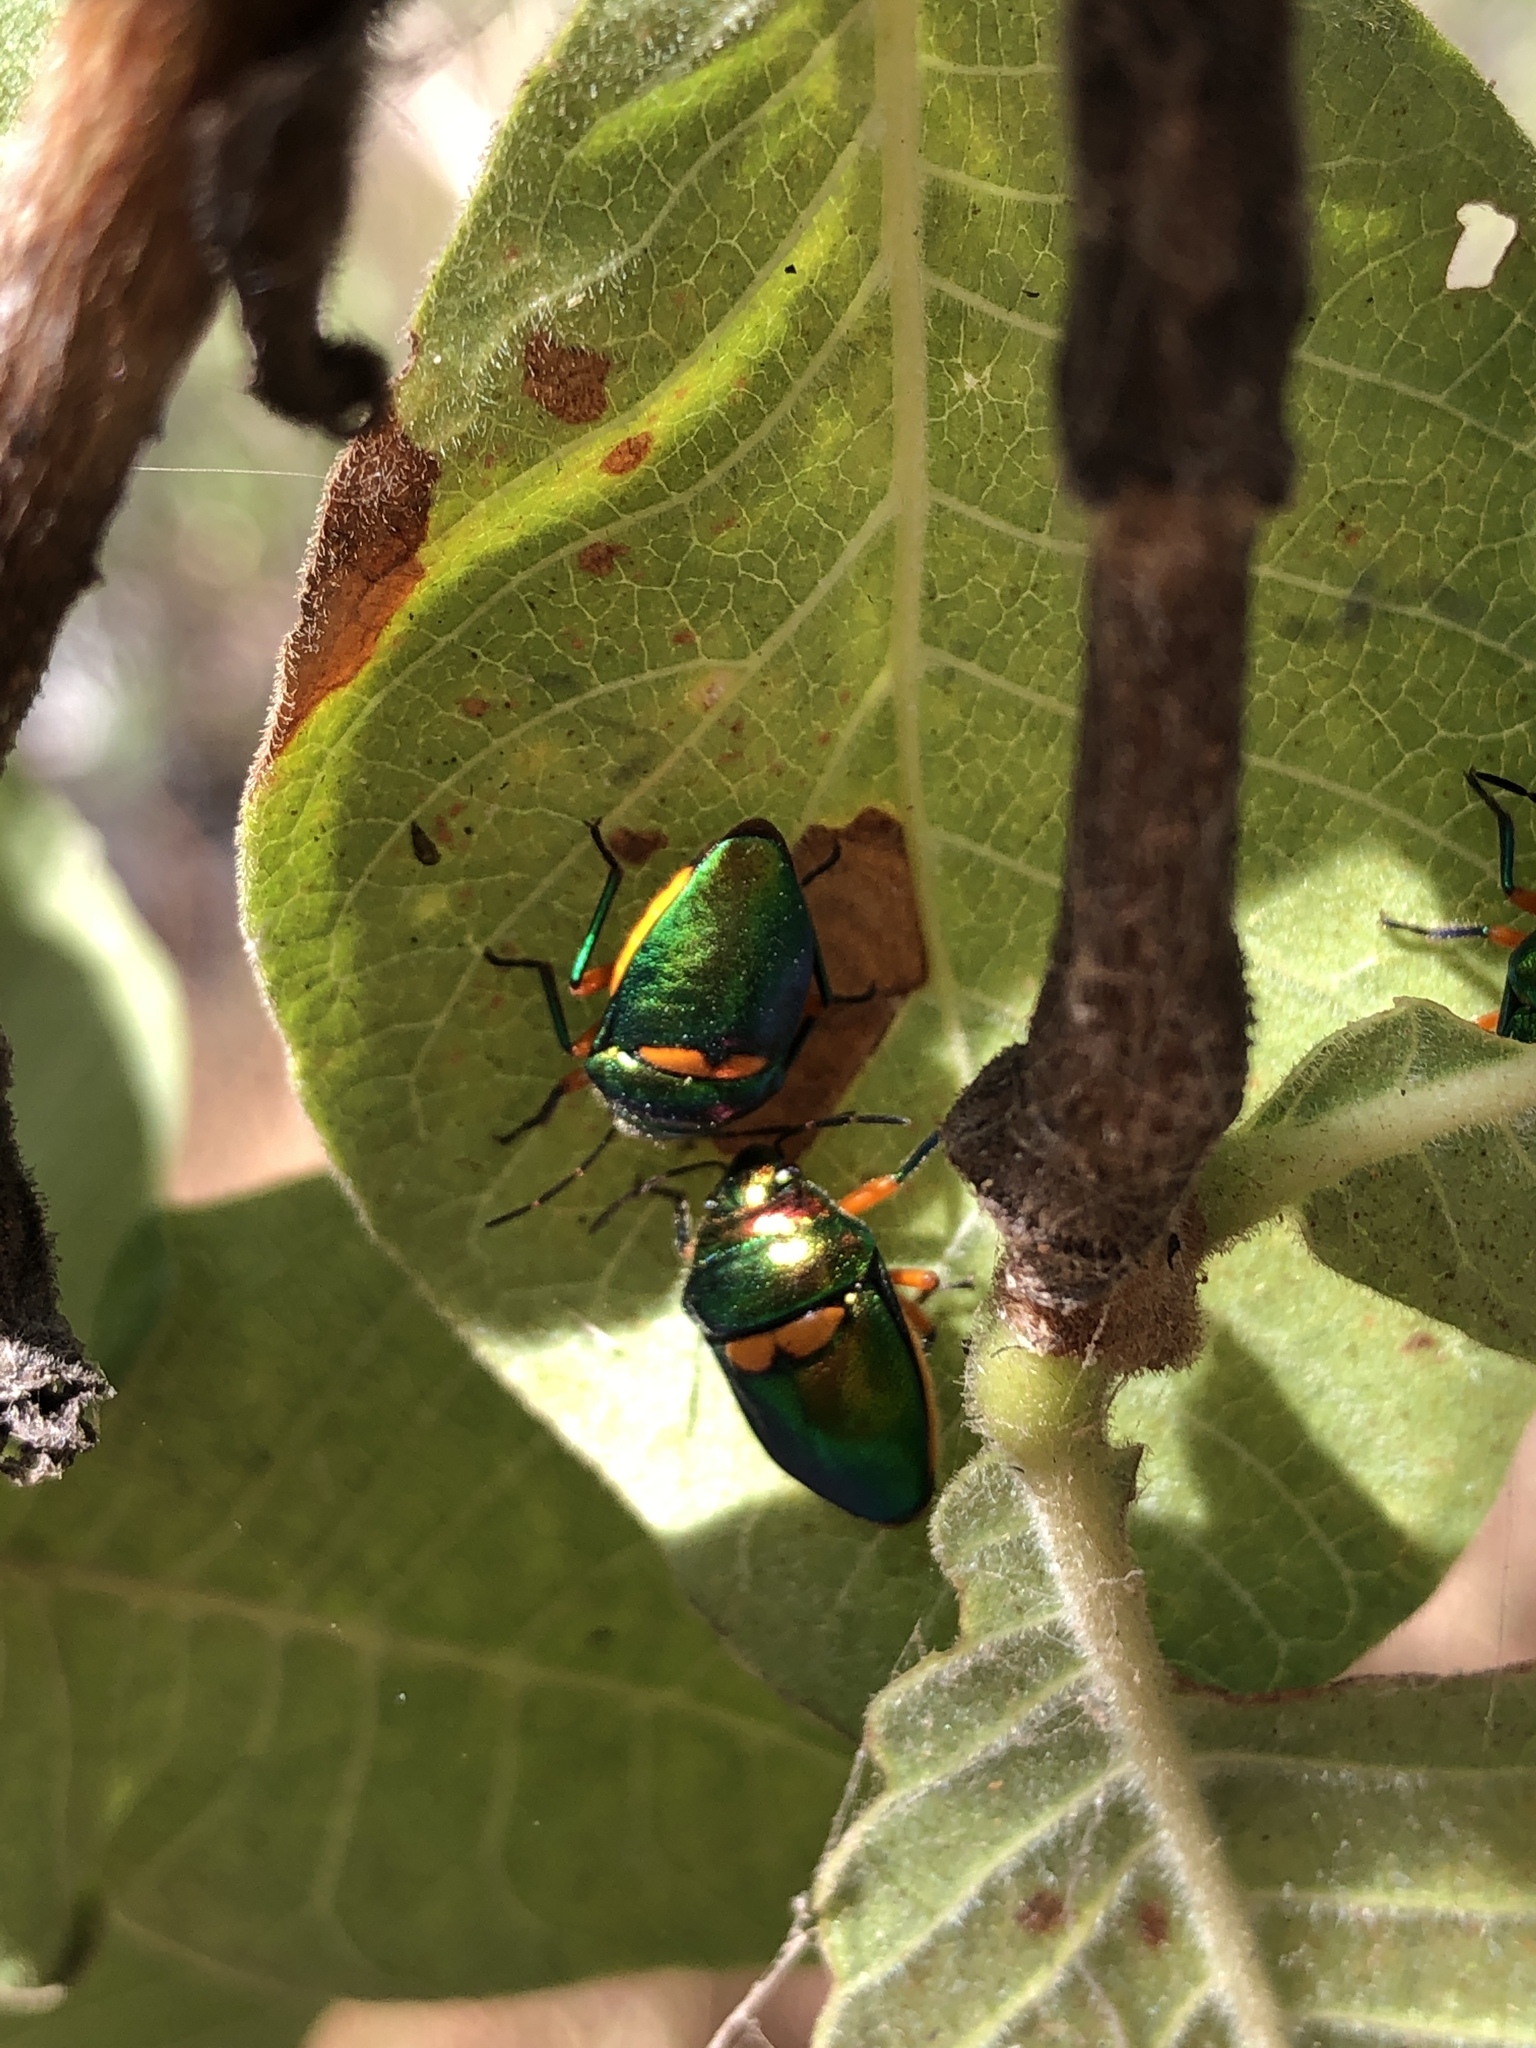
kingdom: Animalia
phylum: Arthropoda
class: Insecta
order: Hemiptera
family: Scutelleridae
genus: Lampromicra
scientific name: Lampromicra senator
